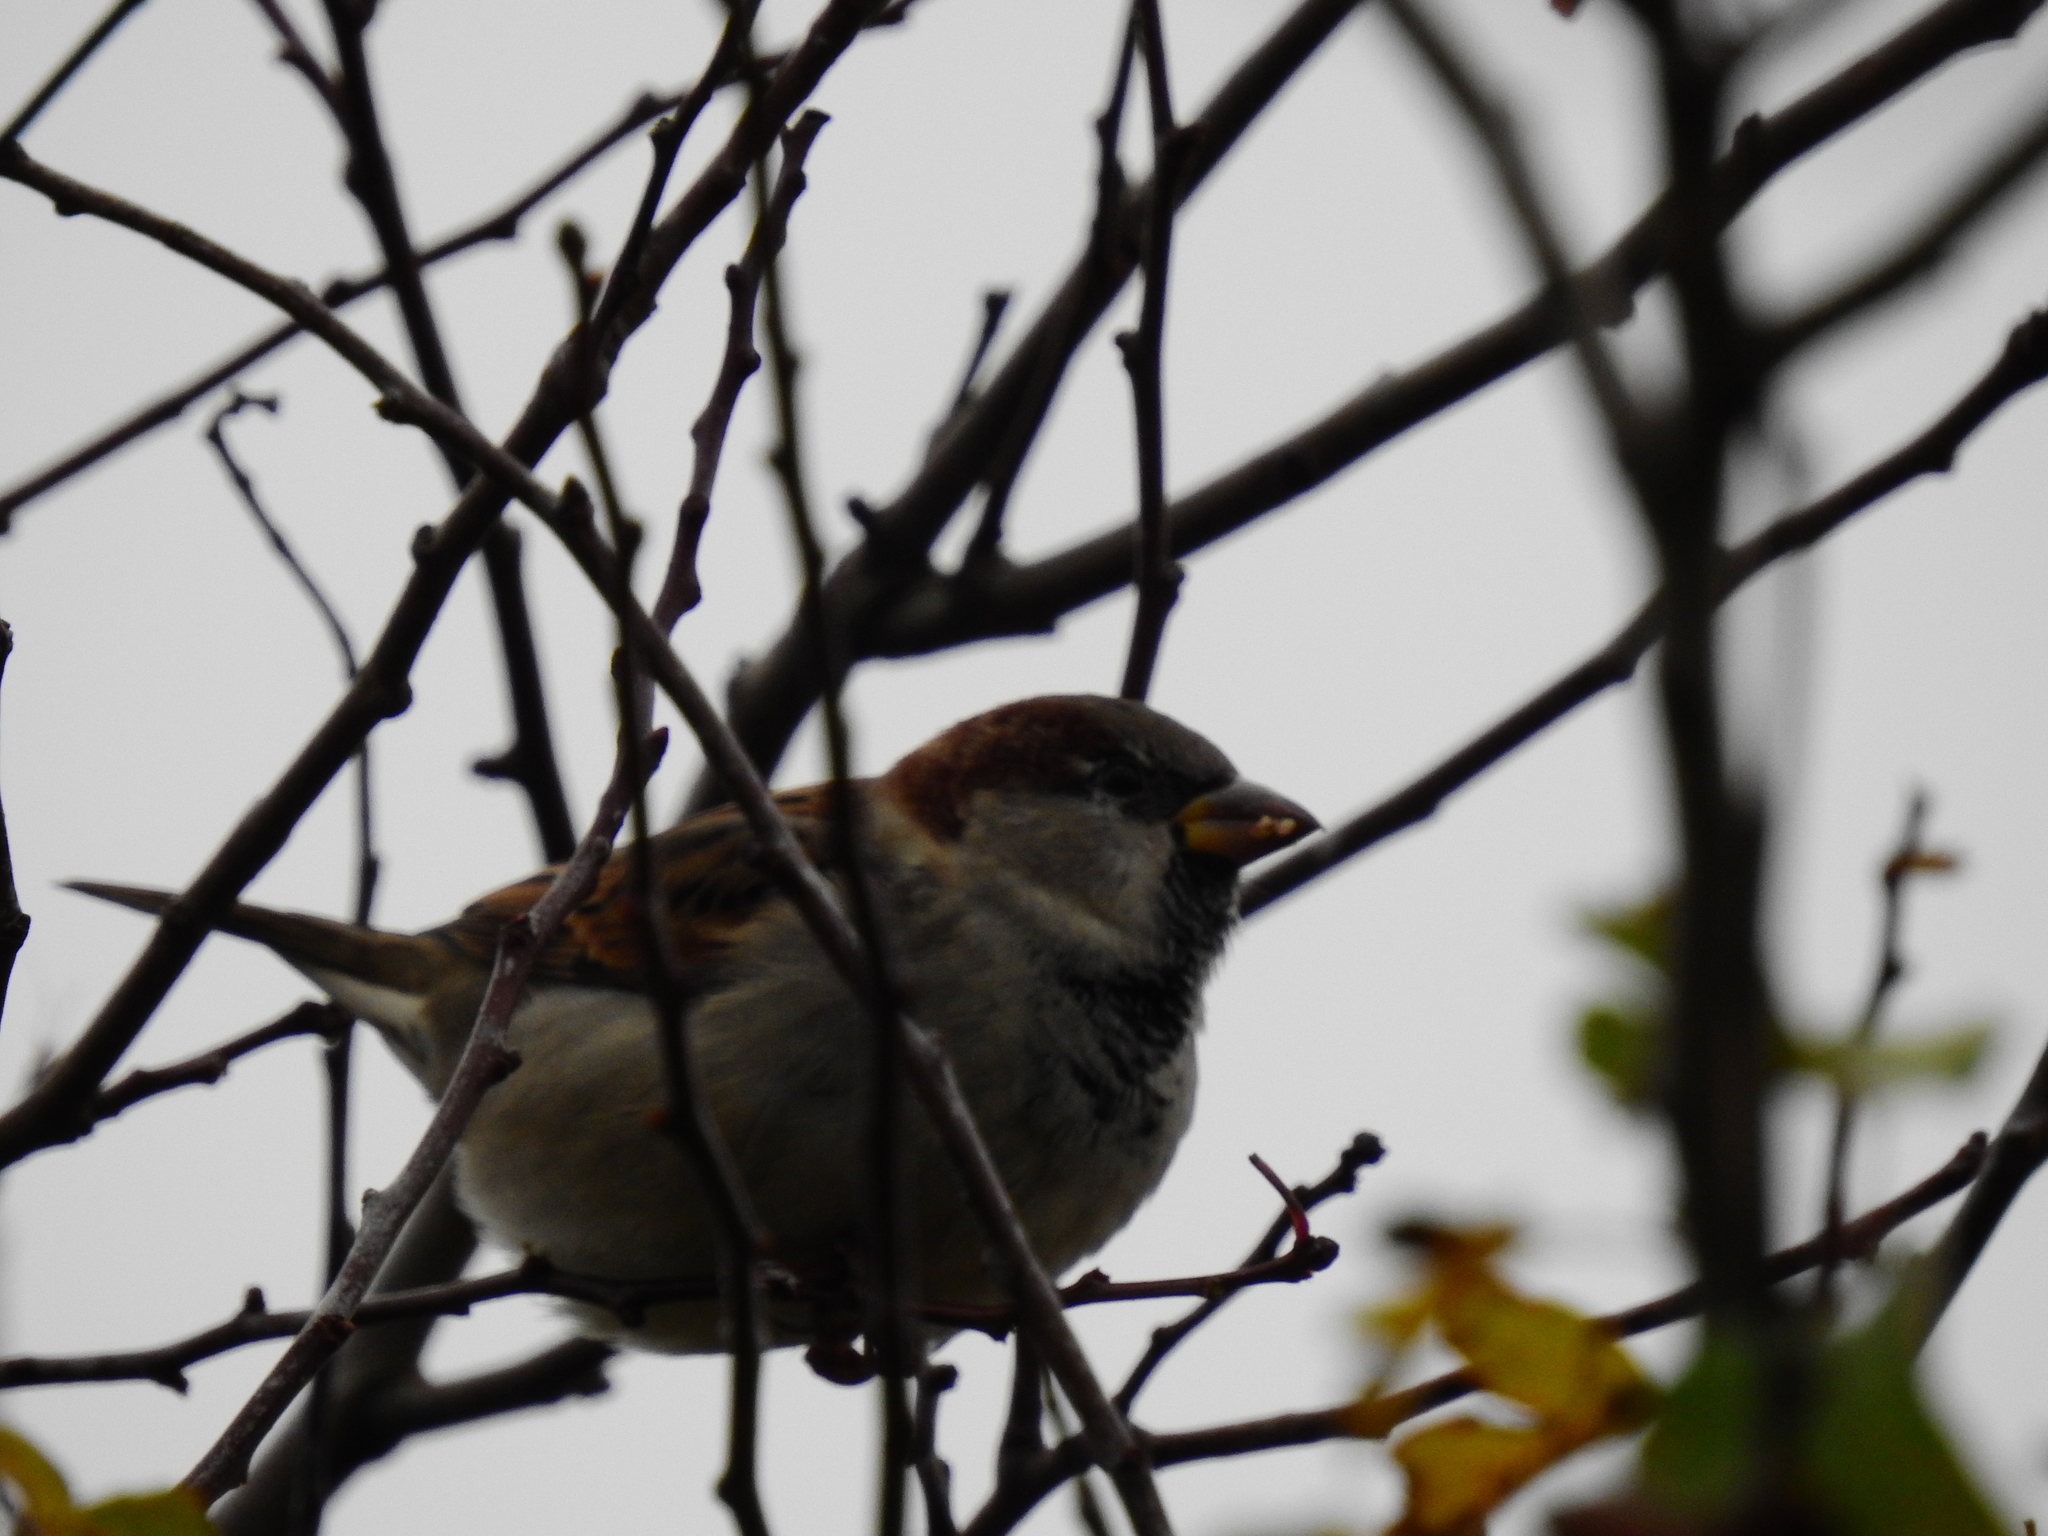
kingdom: Animalia
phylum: Chordata
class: Aves
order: Passeriformes
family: Passeridae
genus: Passer
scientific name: Passer domesticus
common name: House sparrow
